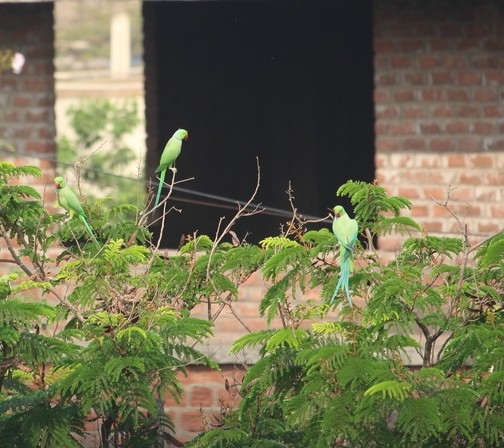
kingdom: Animalia
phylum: Chordata
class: Aves
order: Psittaciformes
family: Psittacidae
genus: Psittacula
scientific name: Psittacula krameri
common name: Rose-ringed parakeet
